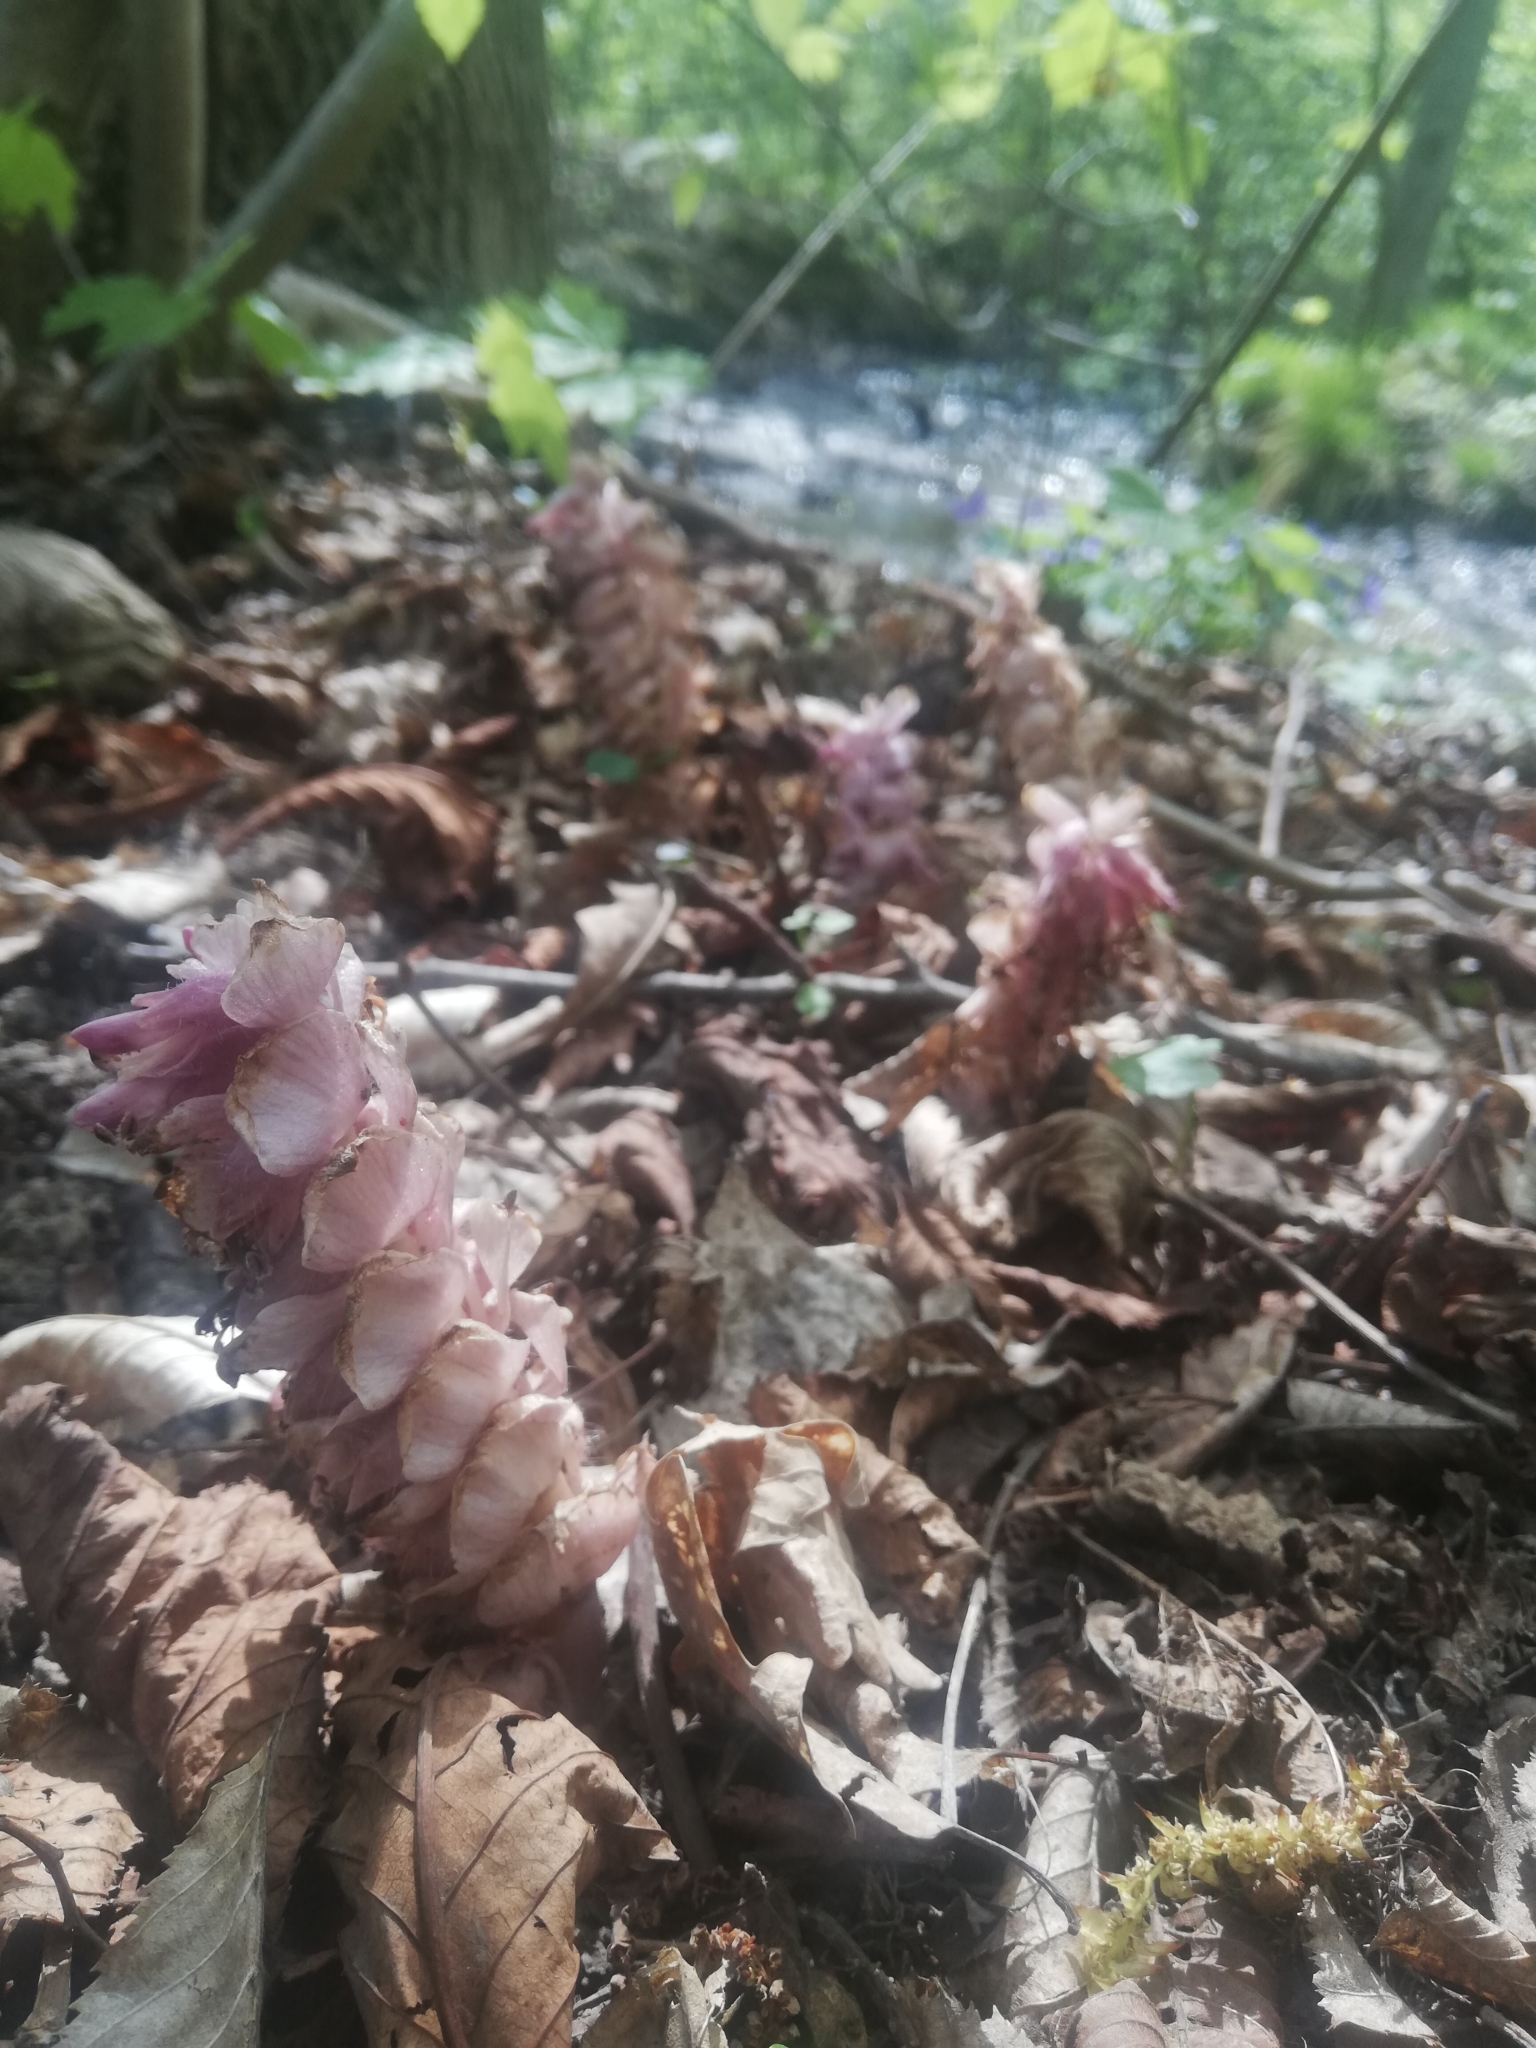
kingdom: Plantae
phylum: Tracheophyta
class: Magnoliopsida
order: Lamiales
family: Orobanchaceae
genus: Lathraea
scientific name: Lathraea squamaria
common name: Toothwort
